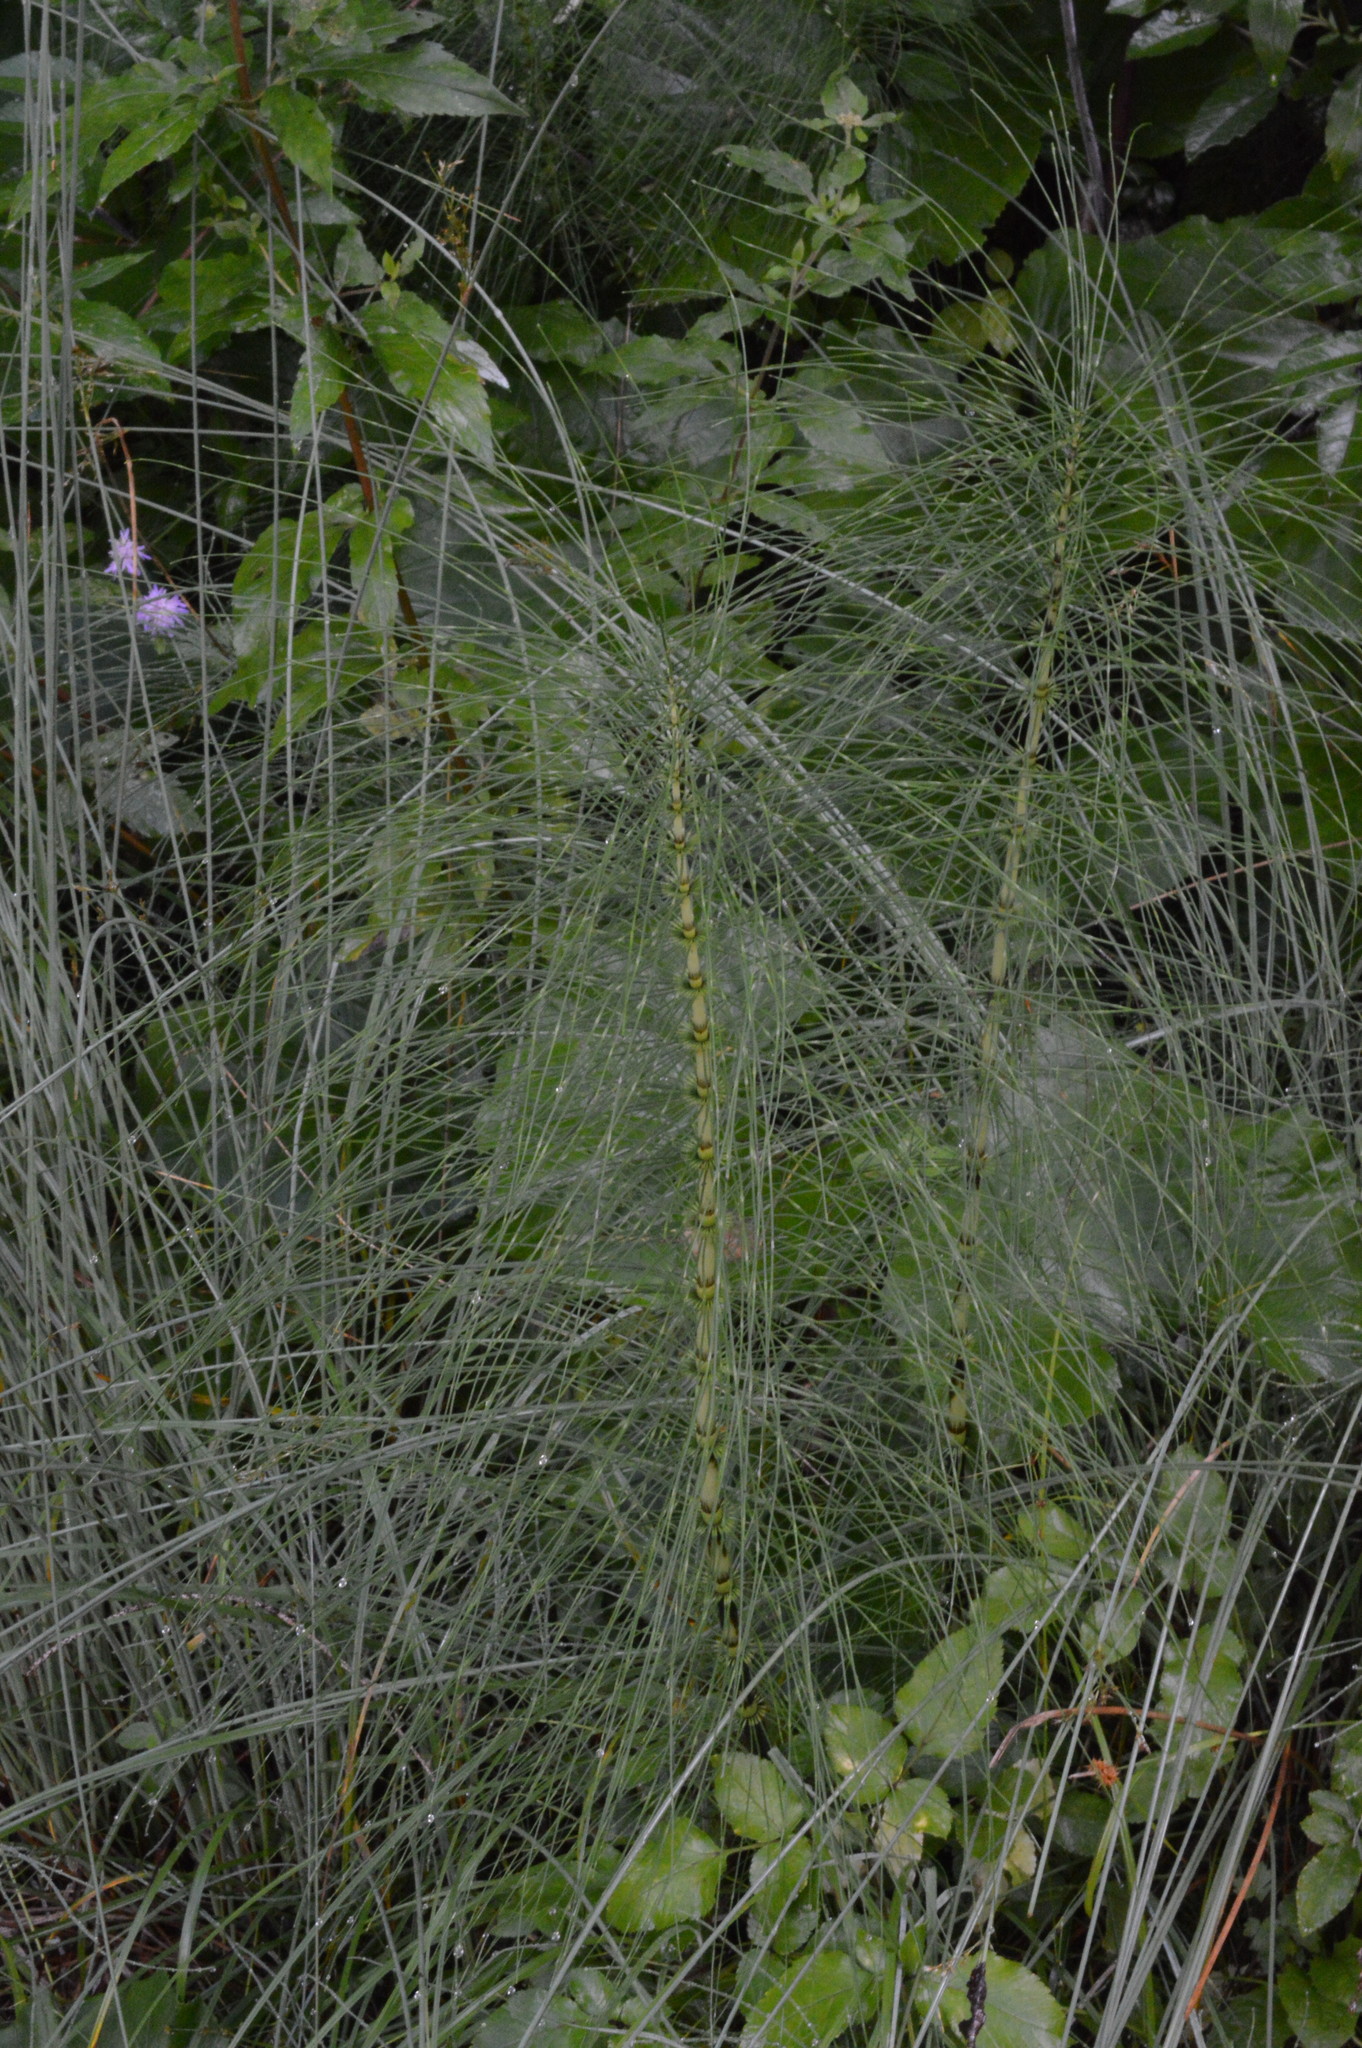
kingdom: Plantae
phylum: Tracheophyta
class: Polypodiopsida
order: Equisetales
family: Equisetaceae
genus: Equisetum
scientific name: Equisetum telmateia
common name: Great horsetail
